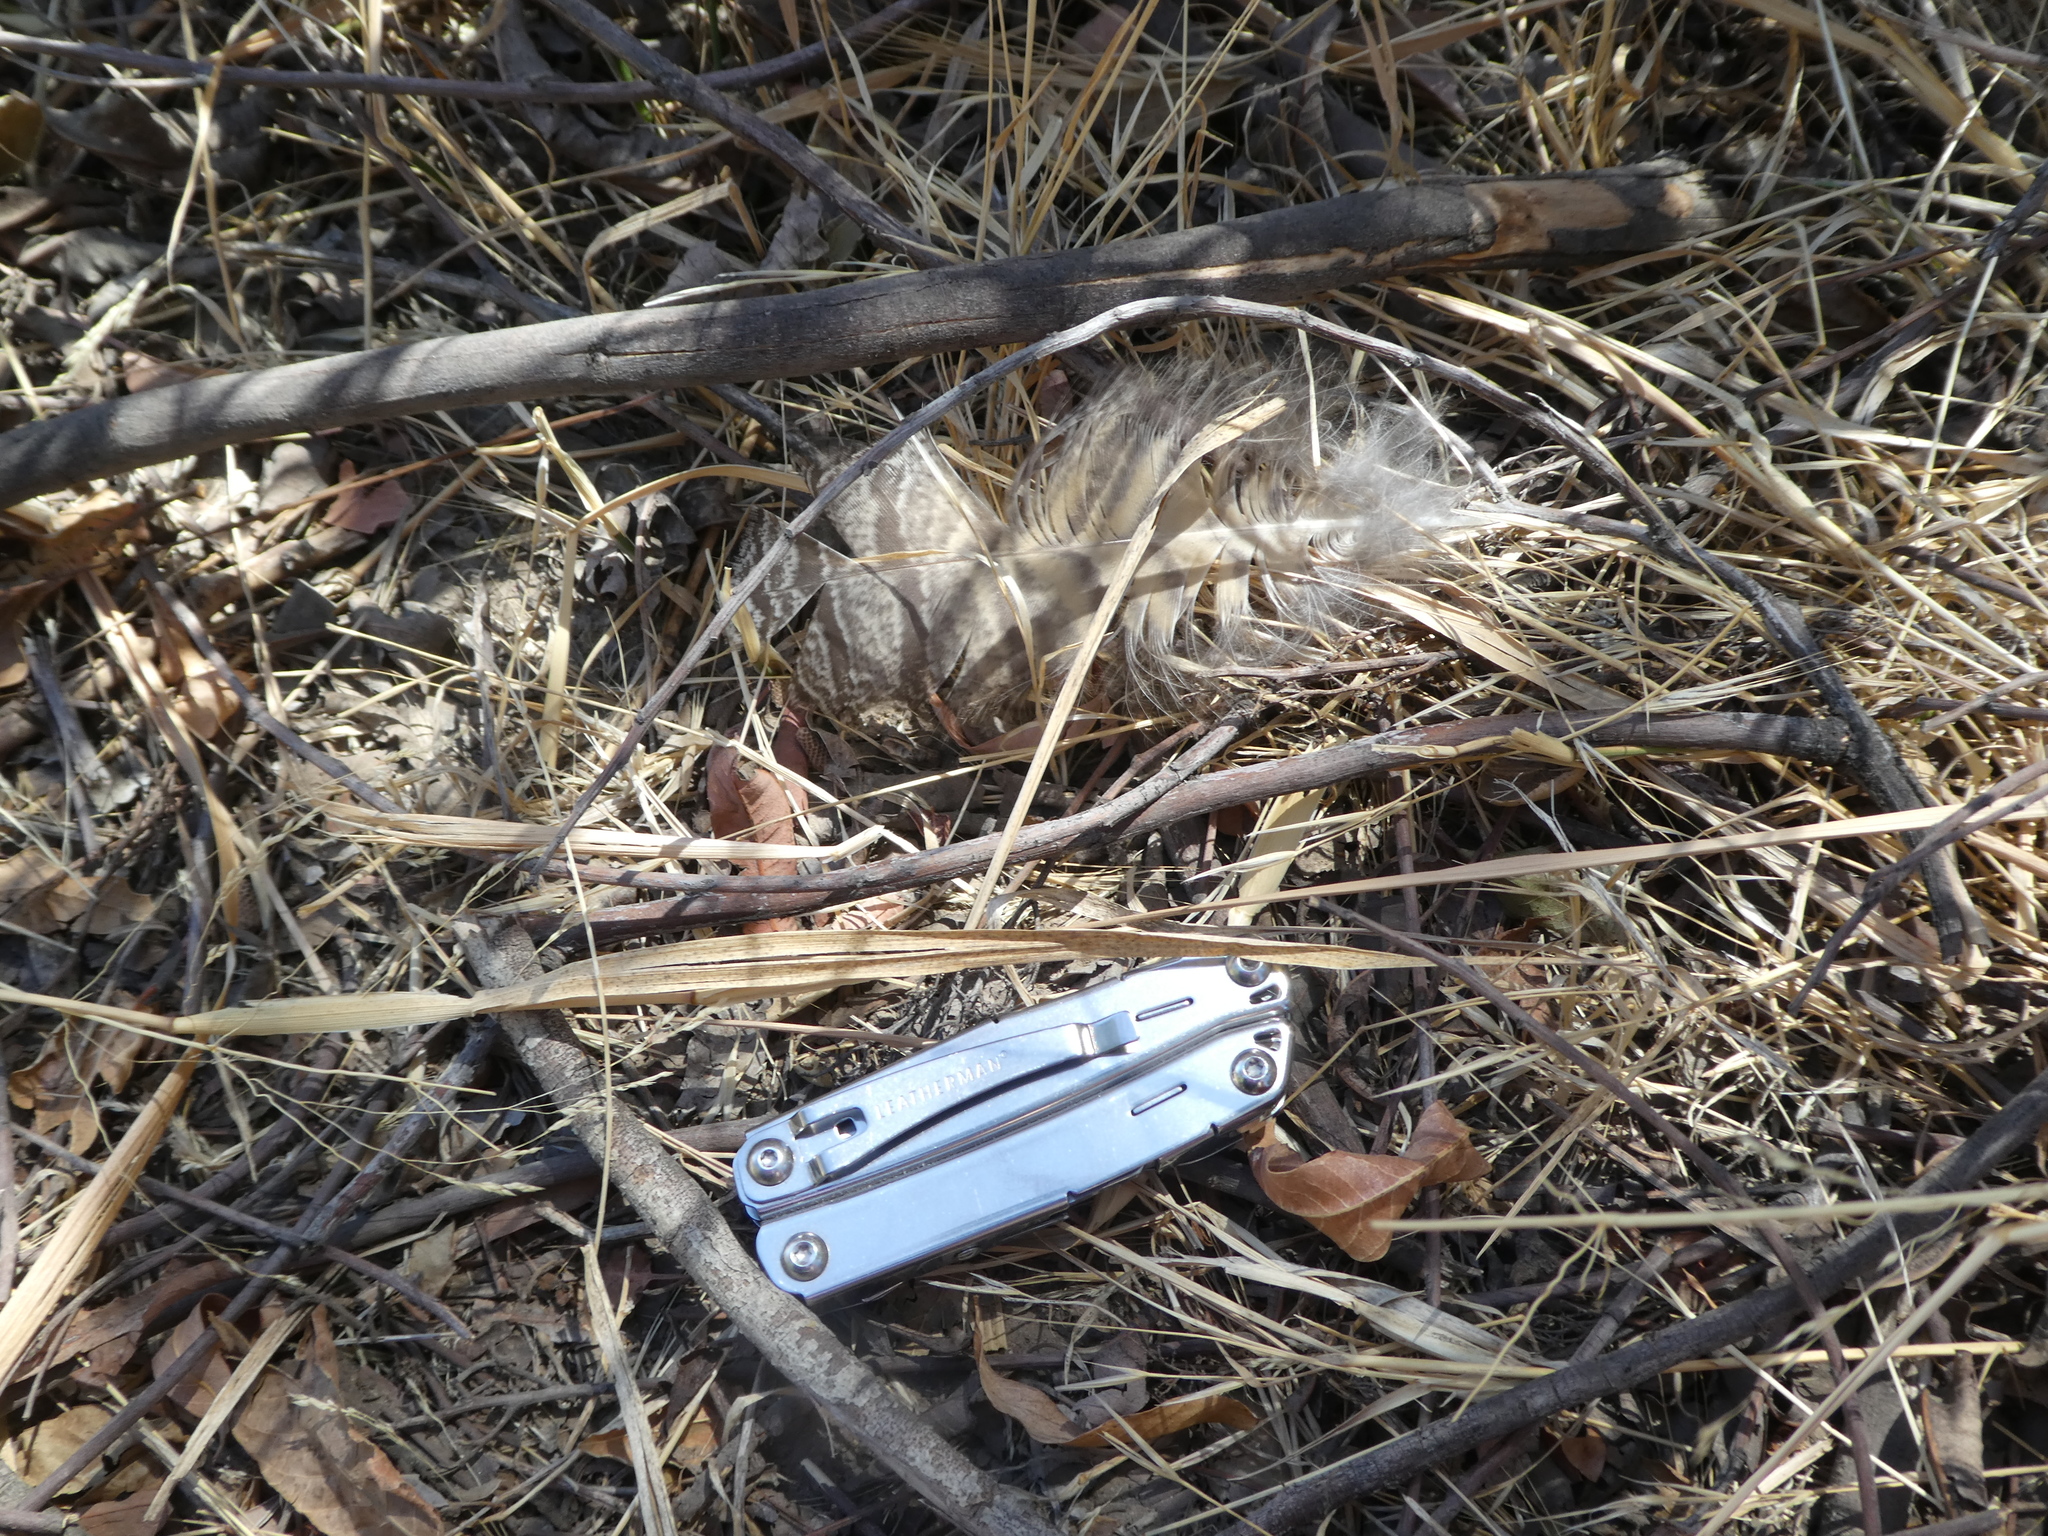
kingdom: Animalia
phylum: Chordata
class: Aves
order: Strigiformes
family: Strigidae
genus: Bubo
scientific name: Bubo virginianus
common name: Great horned owl
